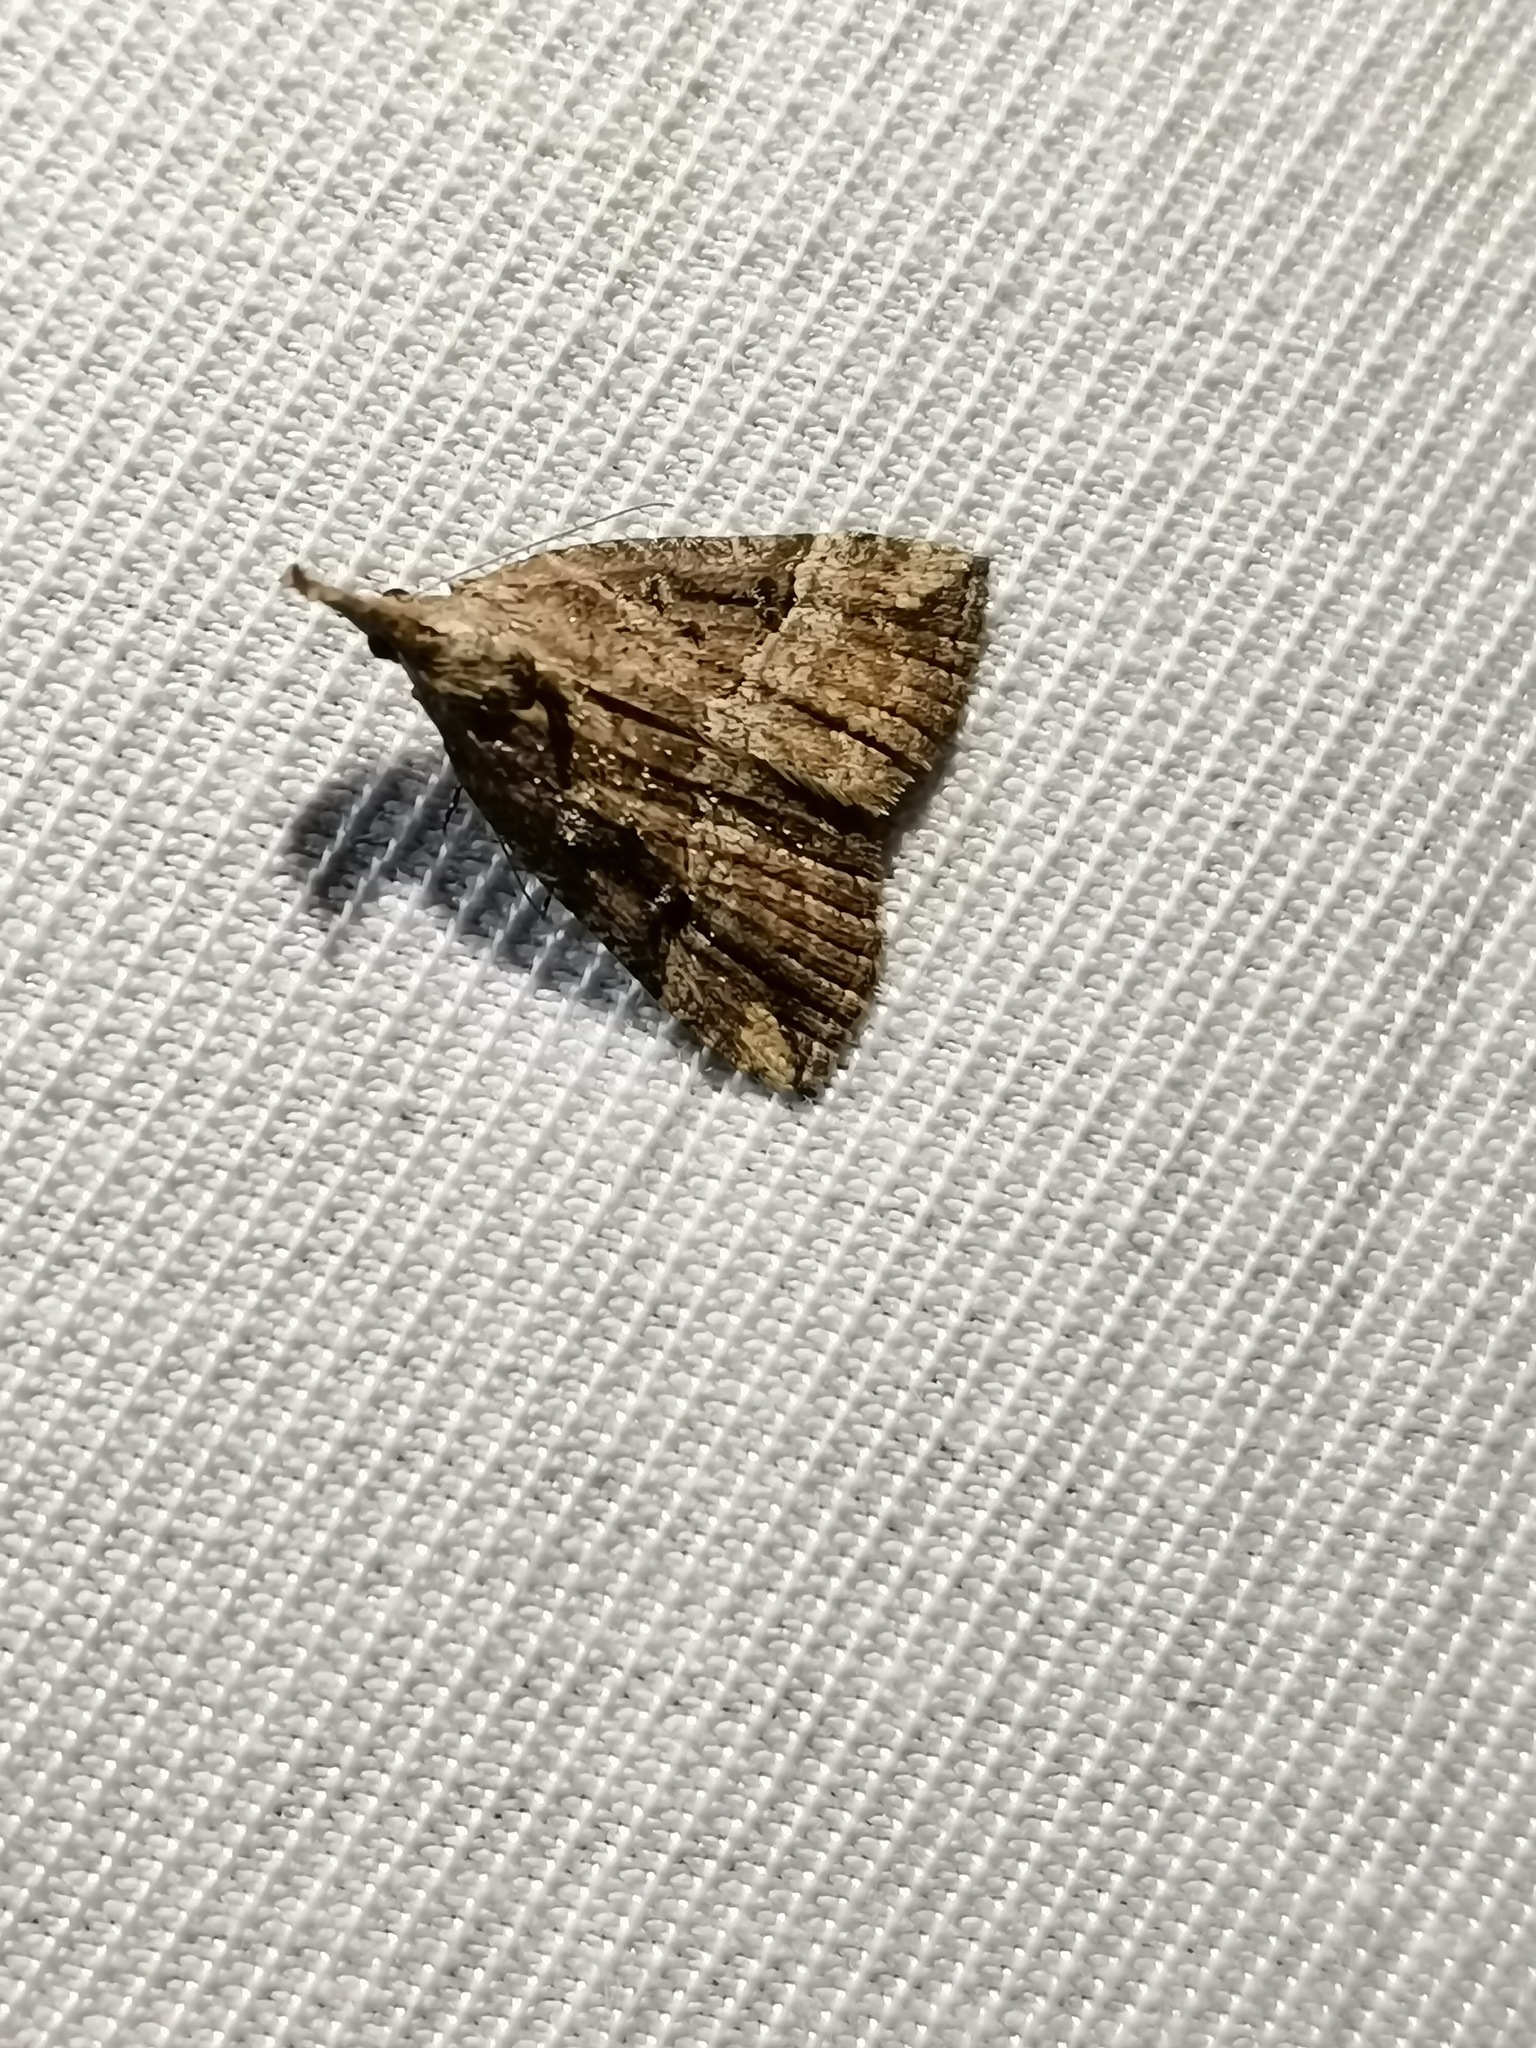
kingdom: Animalia
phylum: Arthropoda
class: Insecta
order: Lepidoptera
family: Erebidae
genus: Hypena
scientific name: Hypena rostralis
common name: Buttoned snout
